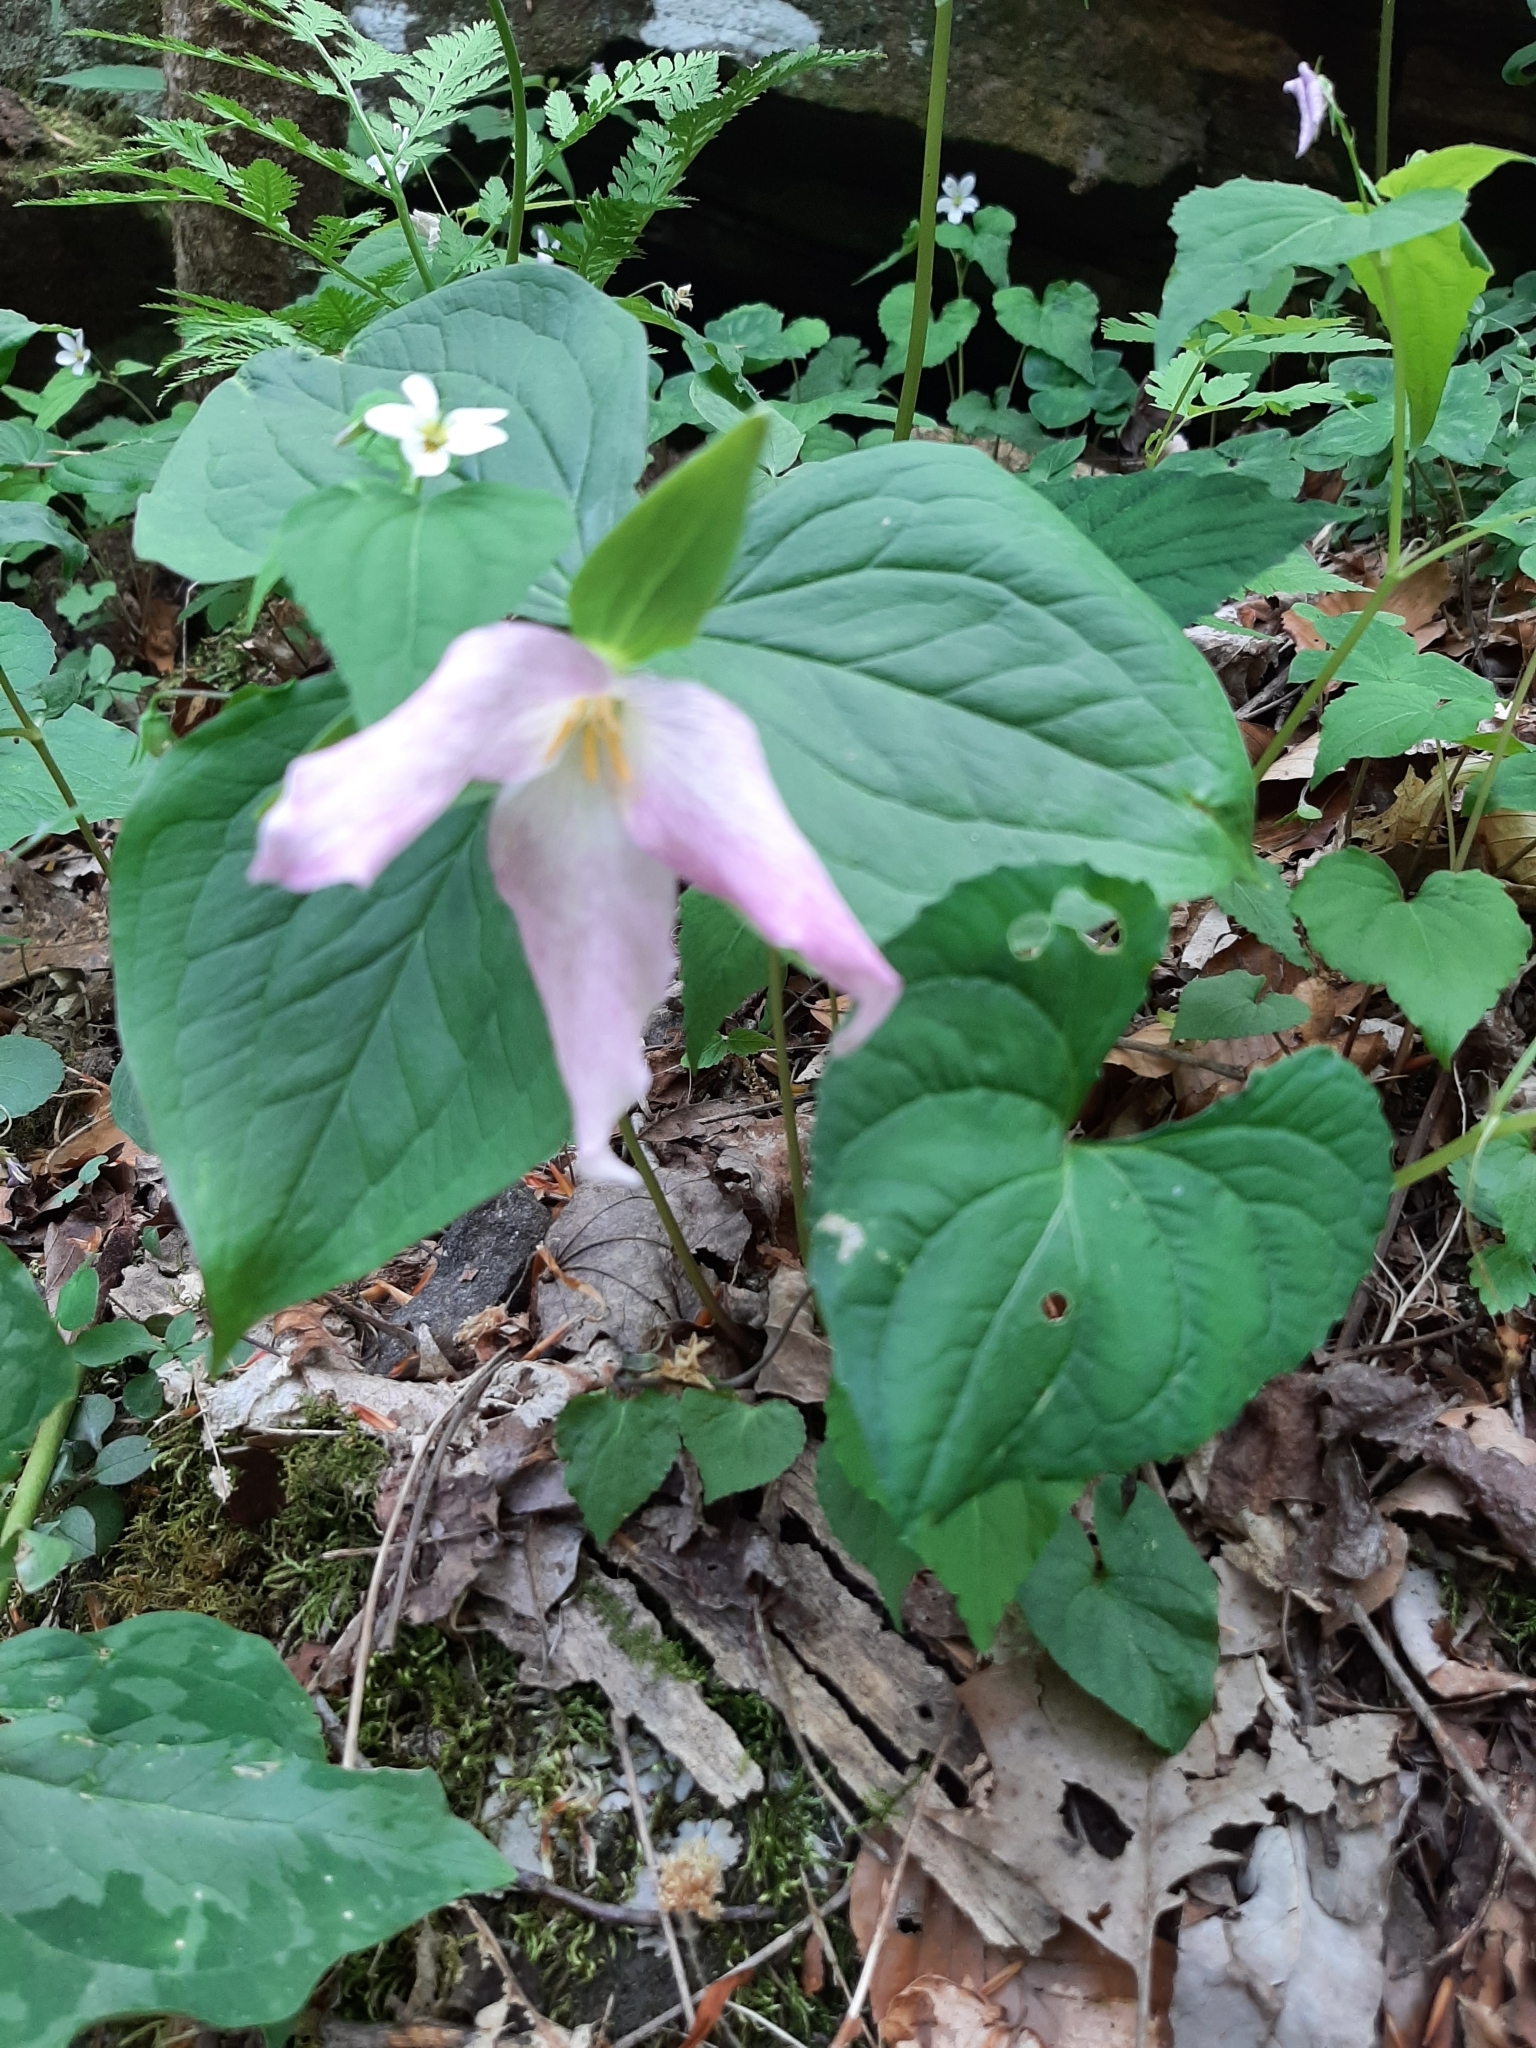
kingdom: Plantae
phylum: Tracheophyta
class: Liliopsida
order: Liliales
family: Melanthiaceae
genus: Trillium
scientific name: Trillium grandiflorum
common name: Great white trillium
